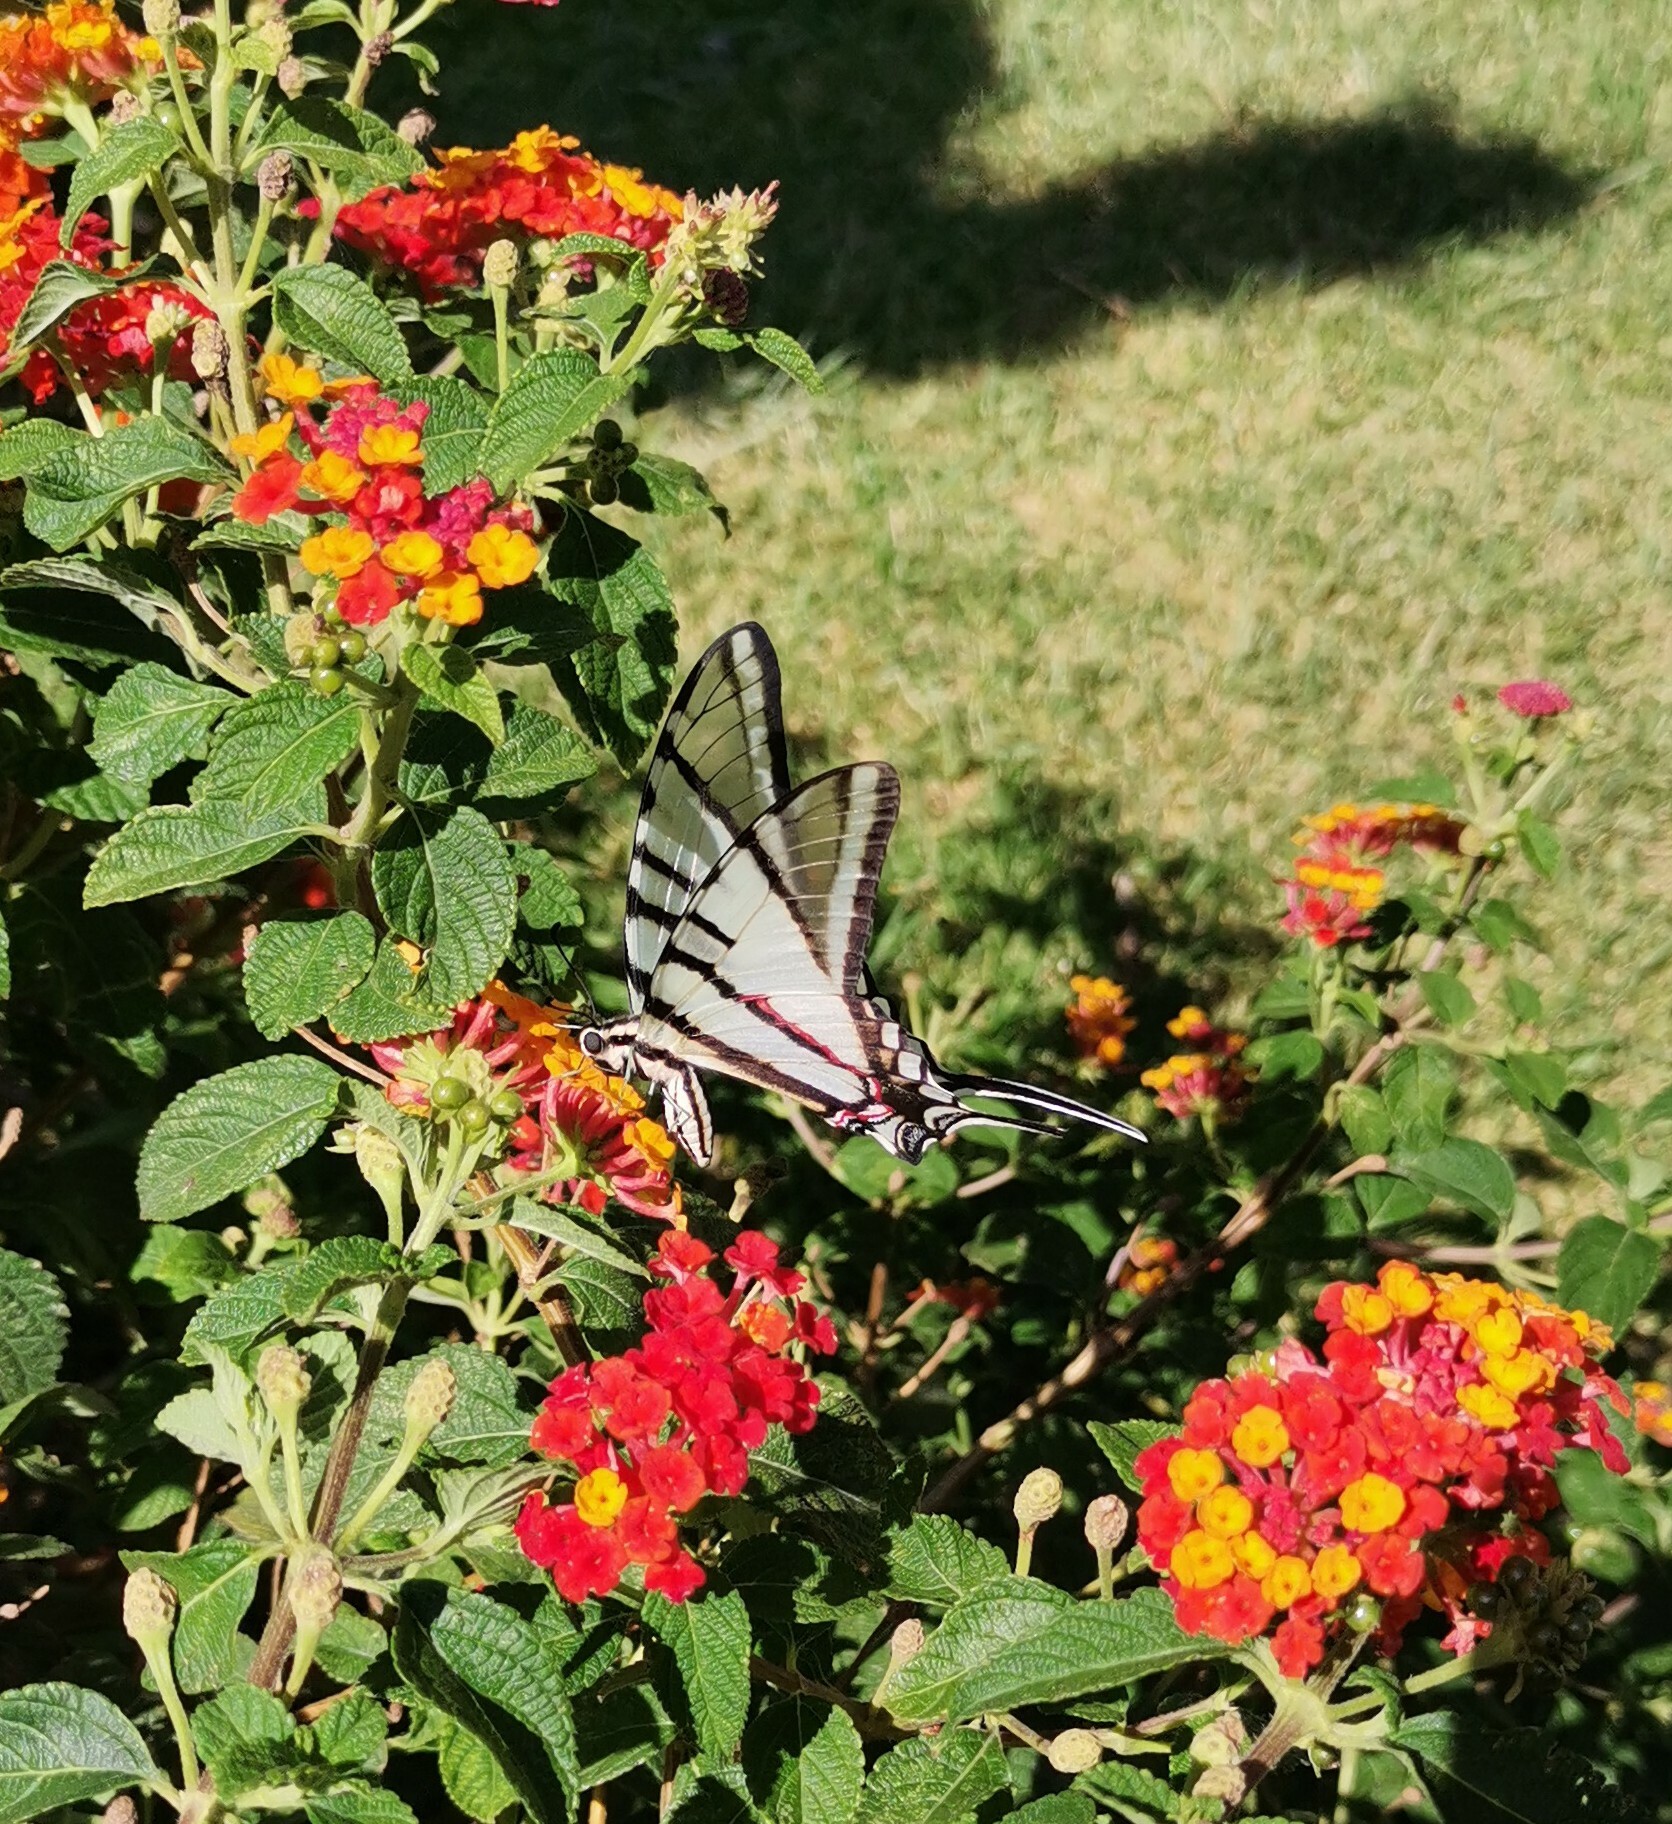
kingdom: Animalia
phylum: Arthropoda
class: Insecta
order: Lepidoptera
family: Papilionidae
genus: Protographium
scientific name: Protographium epidaus
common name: Mexican kite swallowtail
